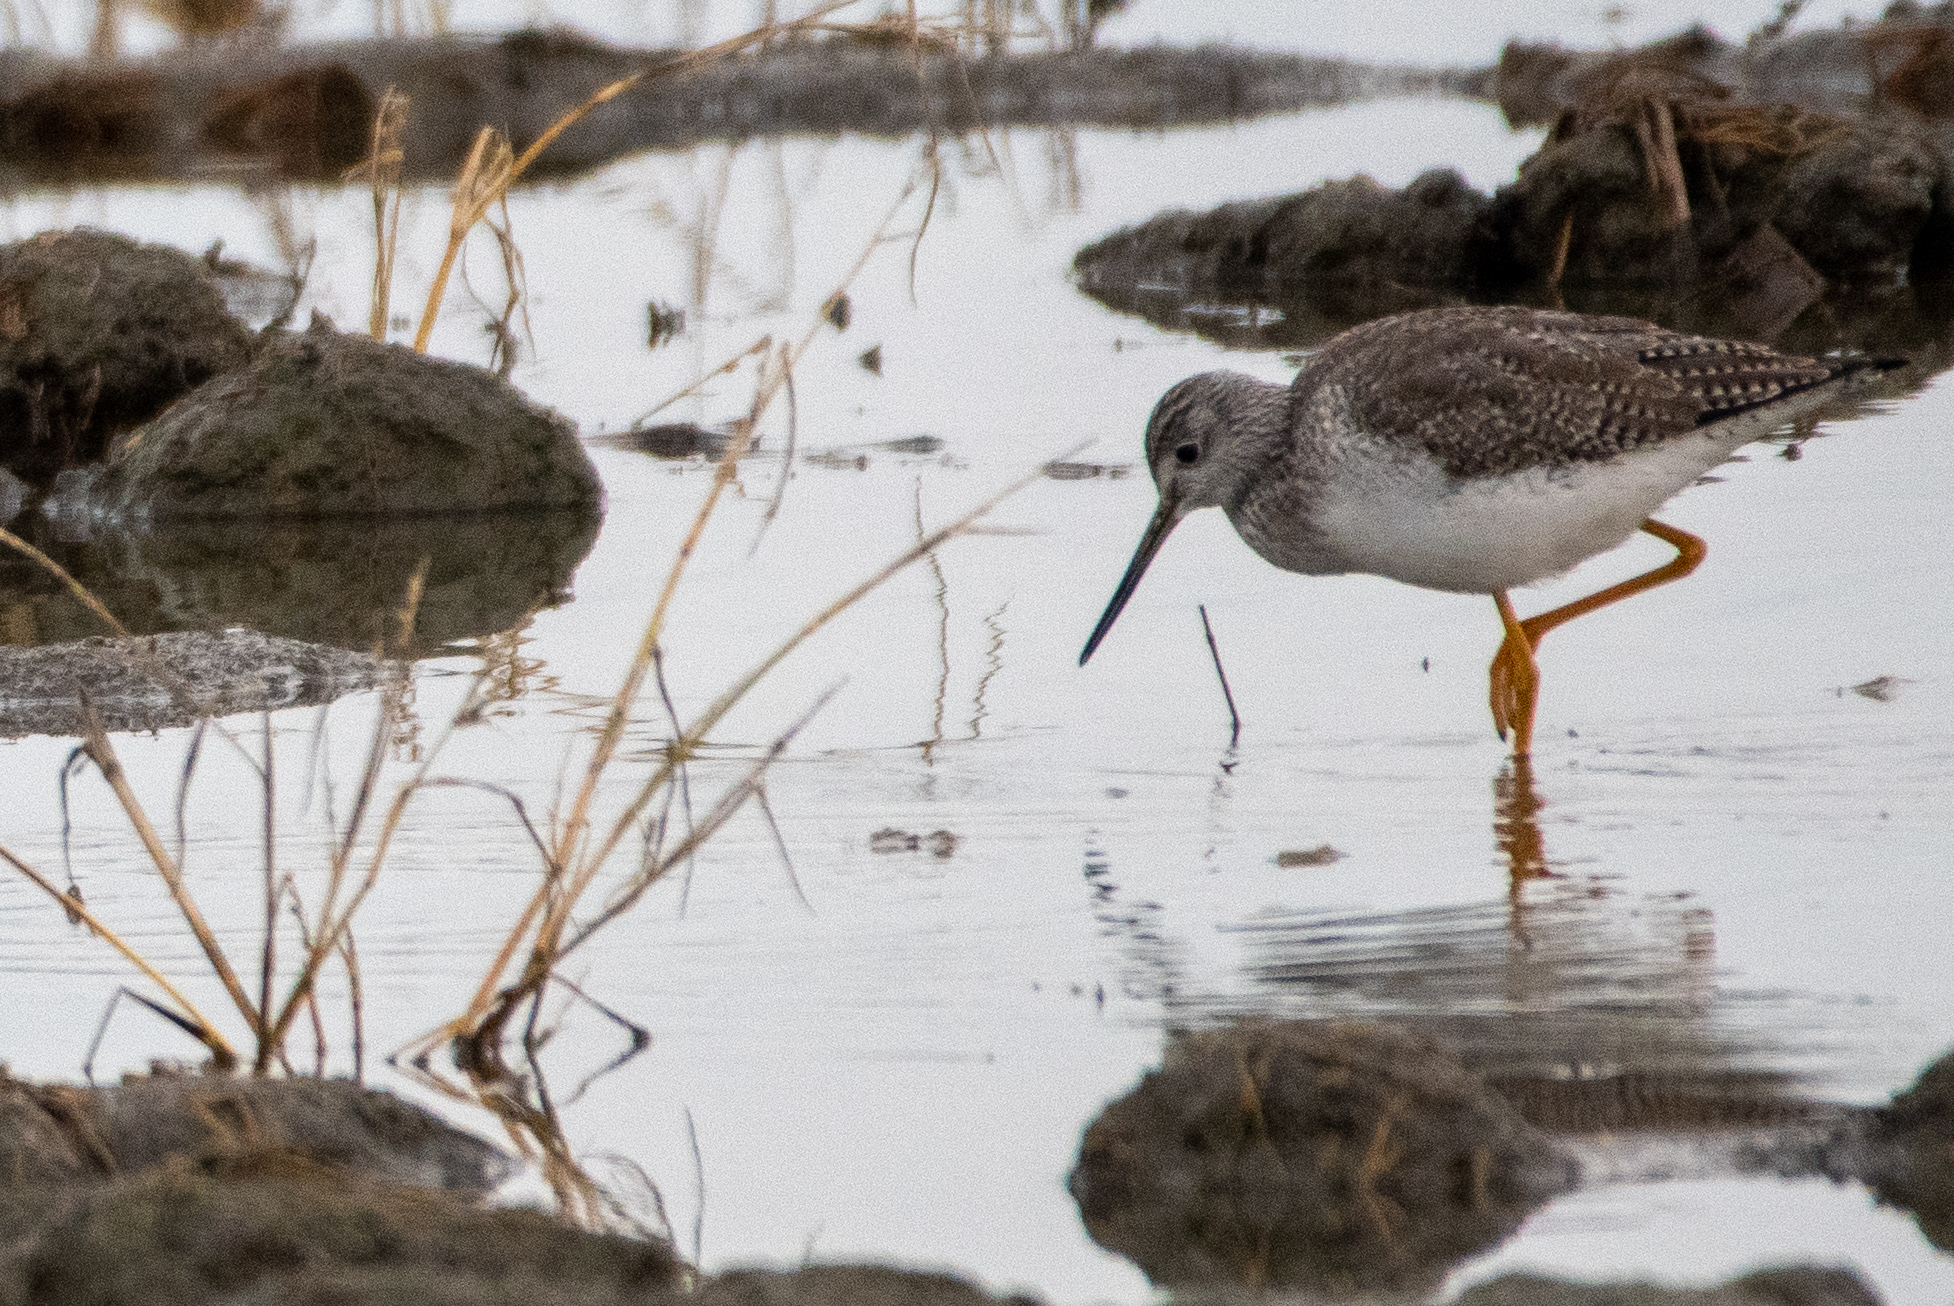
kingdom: Animalia
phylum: Chordata
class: Aves
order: Charadriiformes
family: Scolopacidae
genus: Tringa
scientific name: Tringa melanoleuca
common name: Greater yellowlegs
